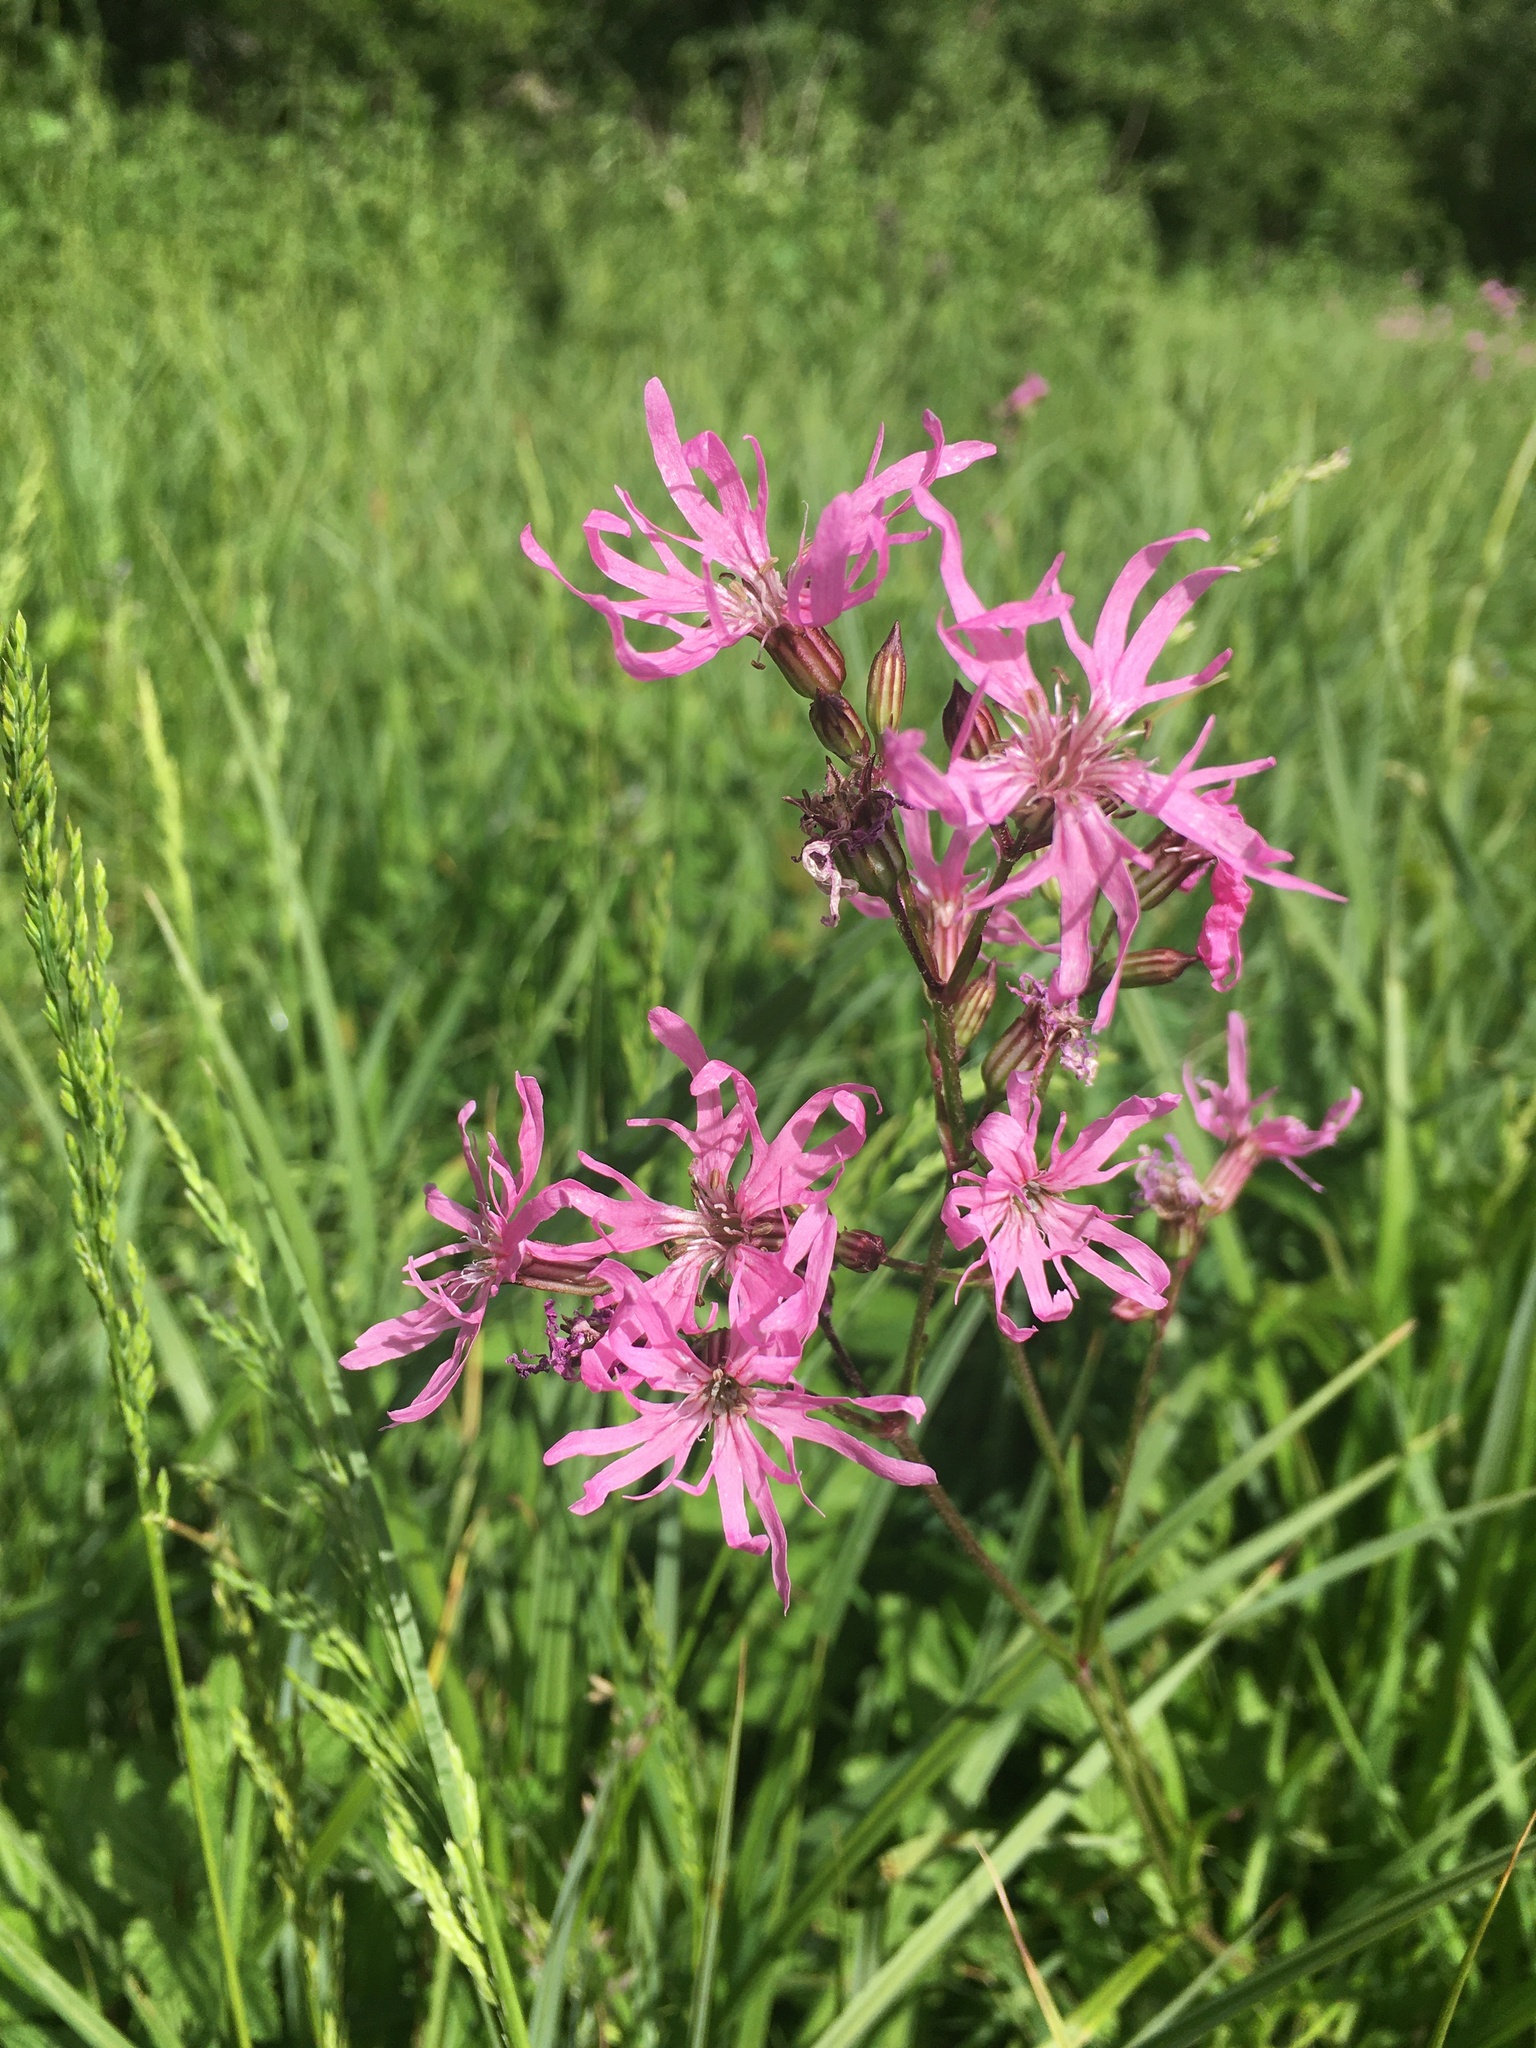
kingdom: Plantae
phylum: Tracheophyta
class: Magnoliopsida
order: Caryophyllales
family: Caryophyllaceae
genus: Silene
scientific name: Silene flos-cuculi
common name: Ragged-robin
